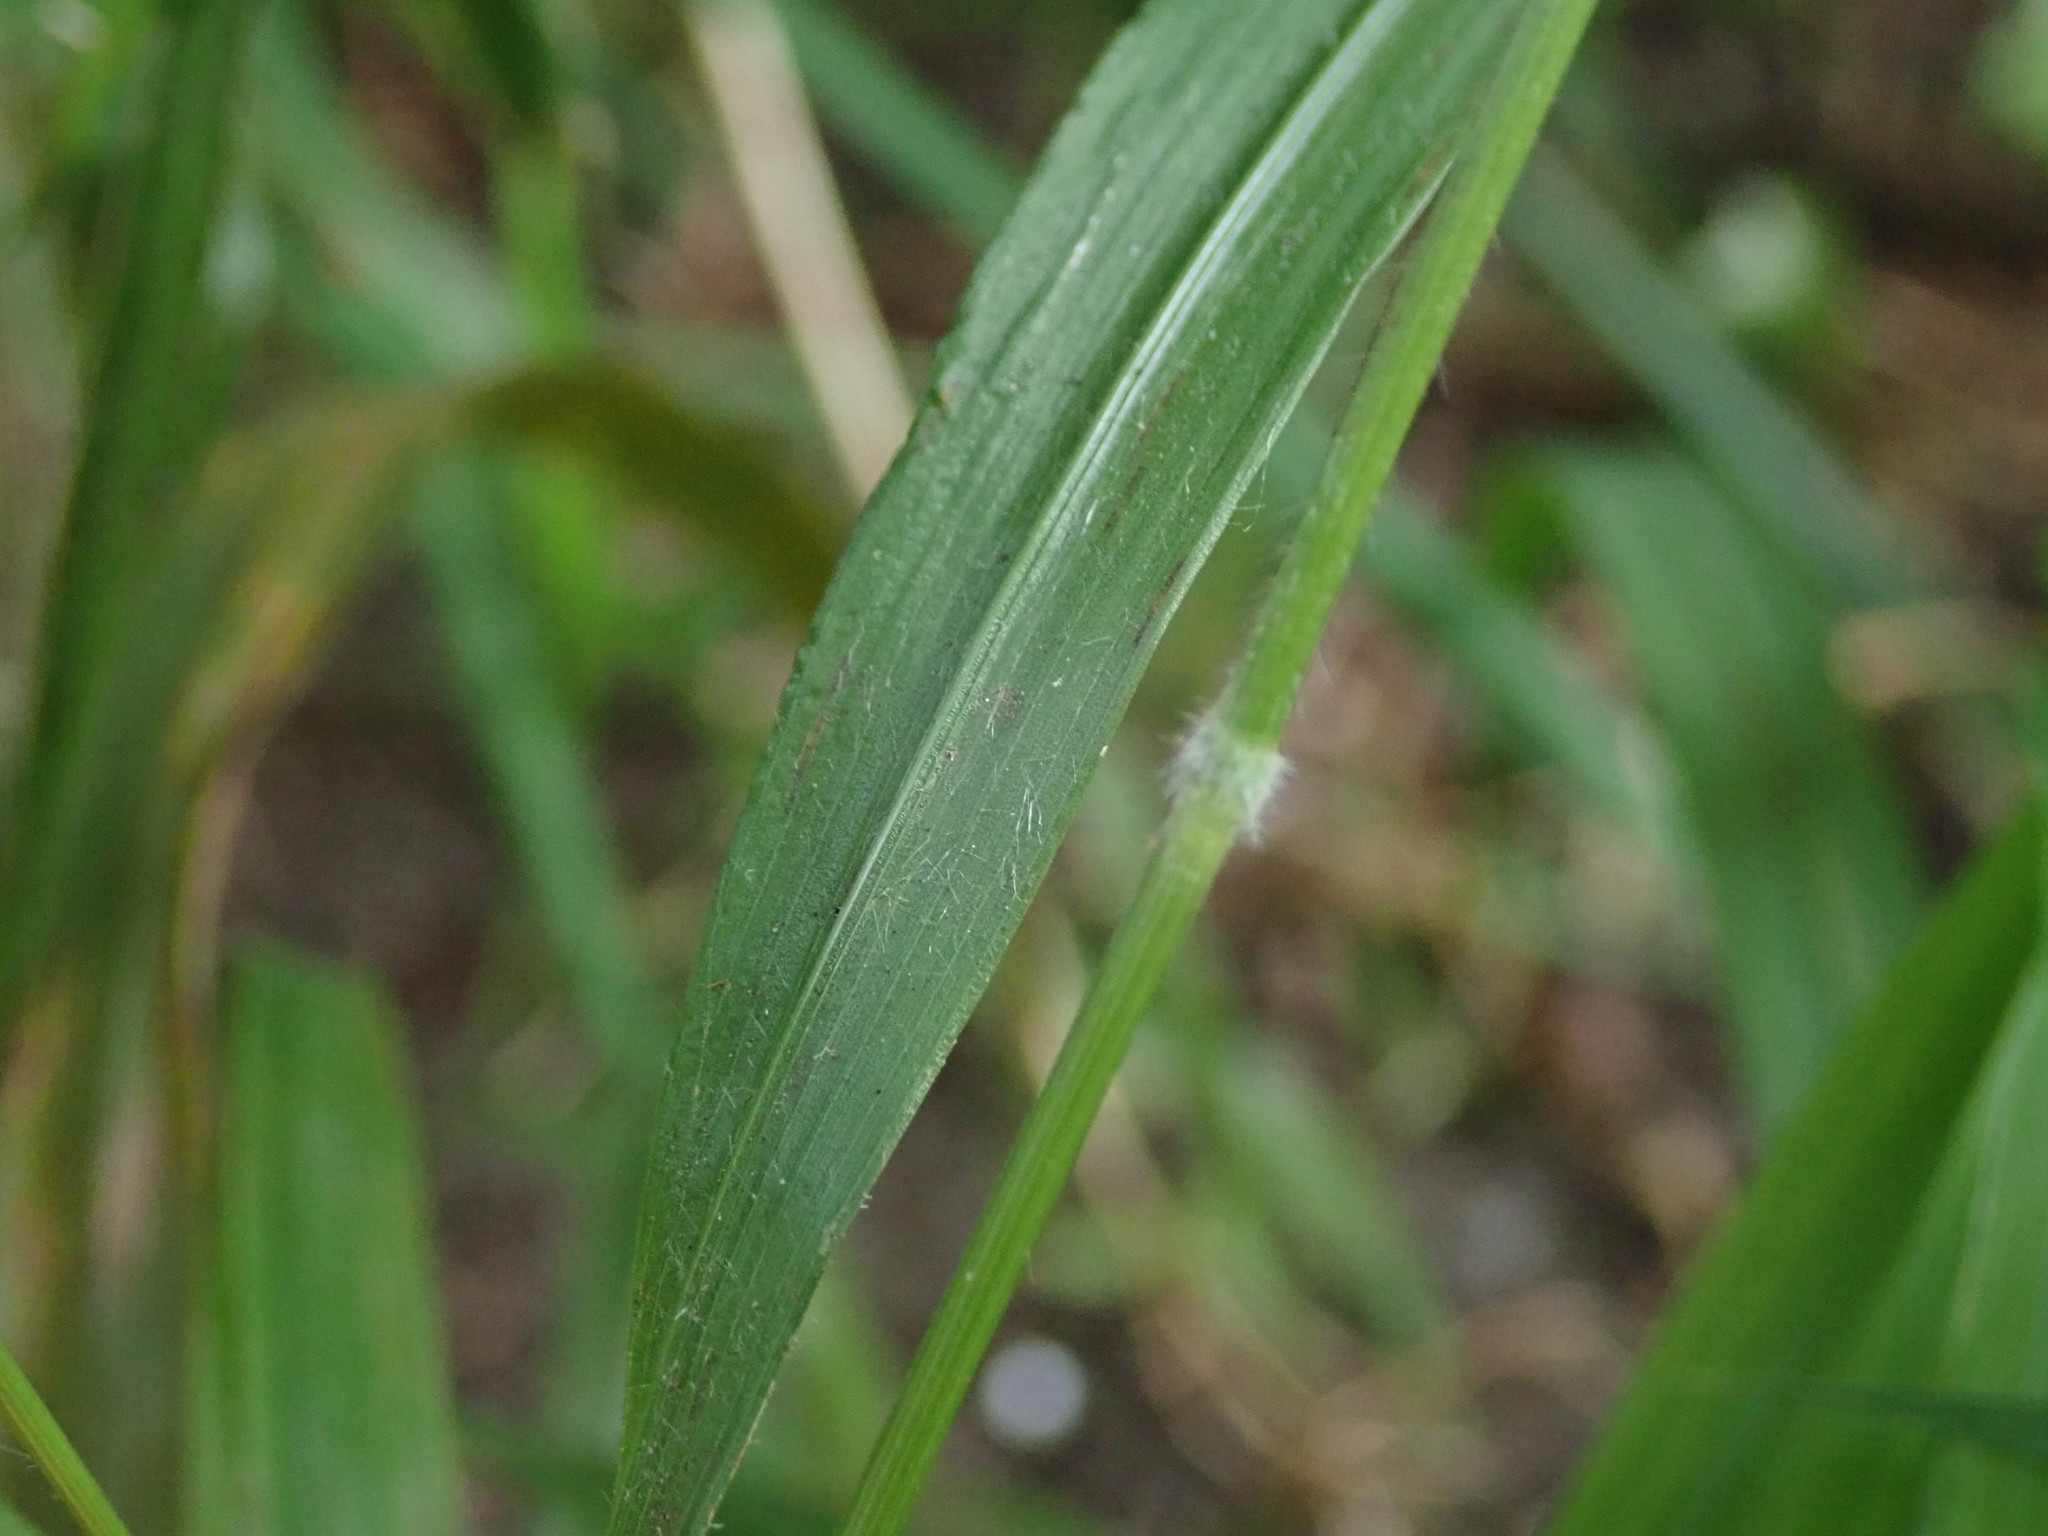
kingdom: Plantae
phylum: Tracheophyta
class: Liliopsida
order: Poales
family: Poaceae
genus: Brachypodium
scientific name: Brachypodium sylvaticum
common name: False-brome
